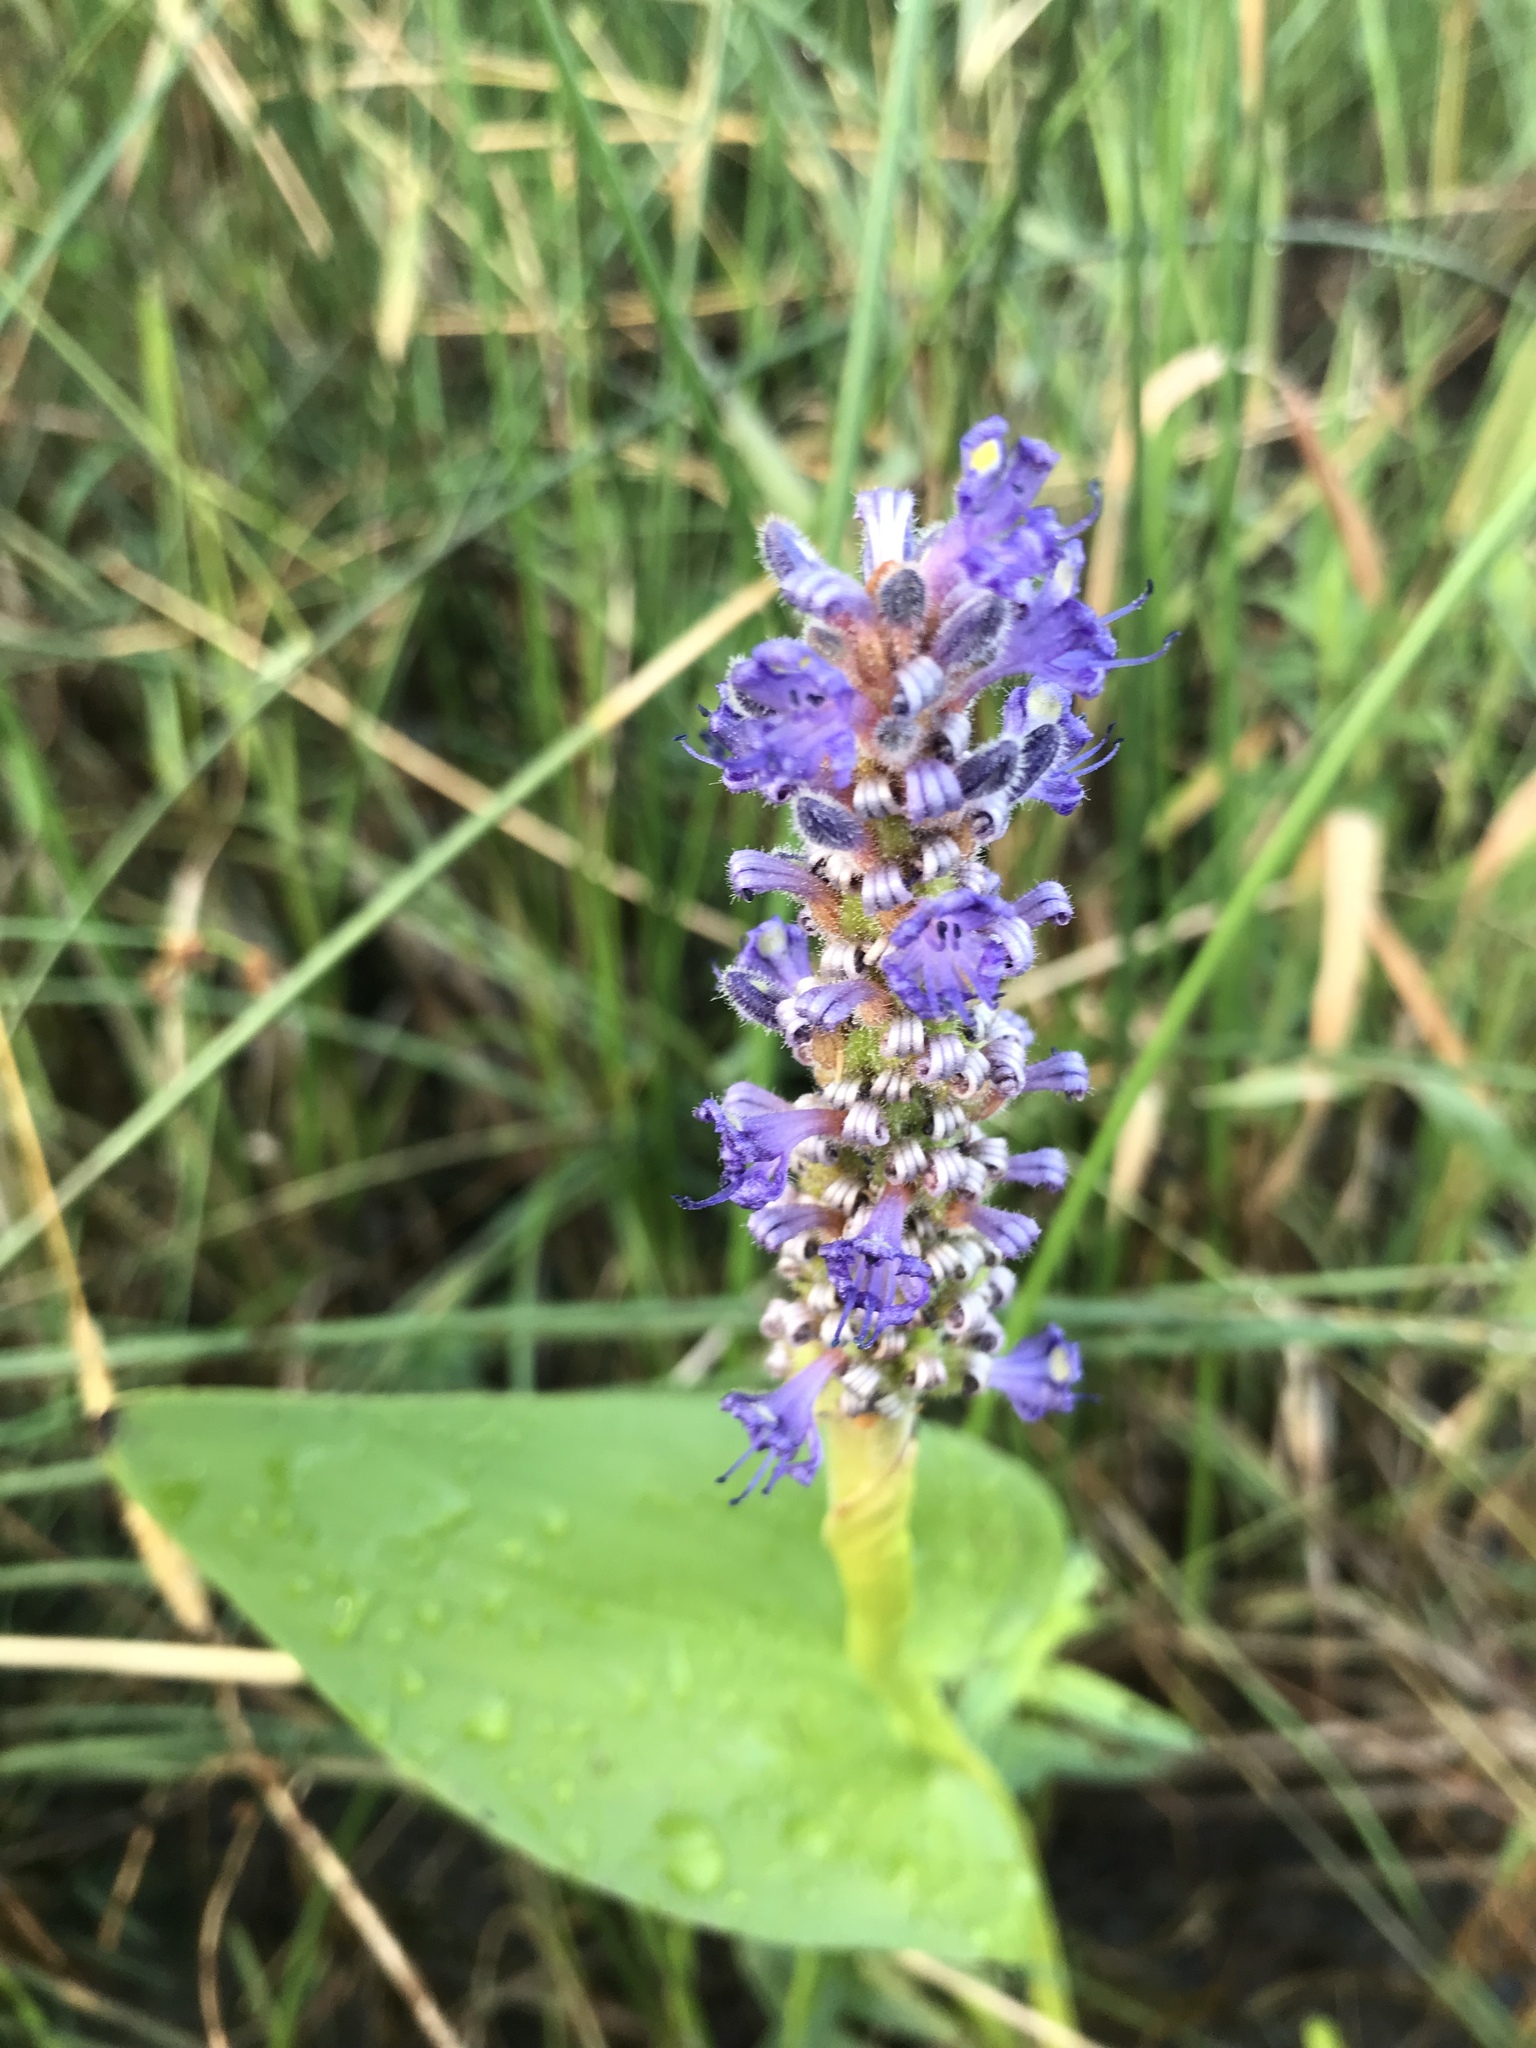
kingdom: Plantae
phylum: Tracheophyta
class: Liliopsida
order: Commelinales
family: Pontederiaceae
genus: Pontederia
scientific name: Pontederia cordata
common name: Pickerelweed
